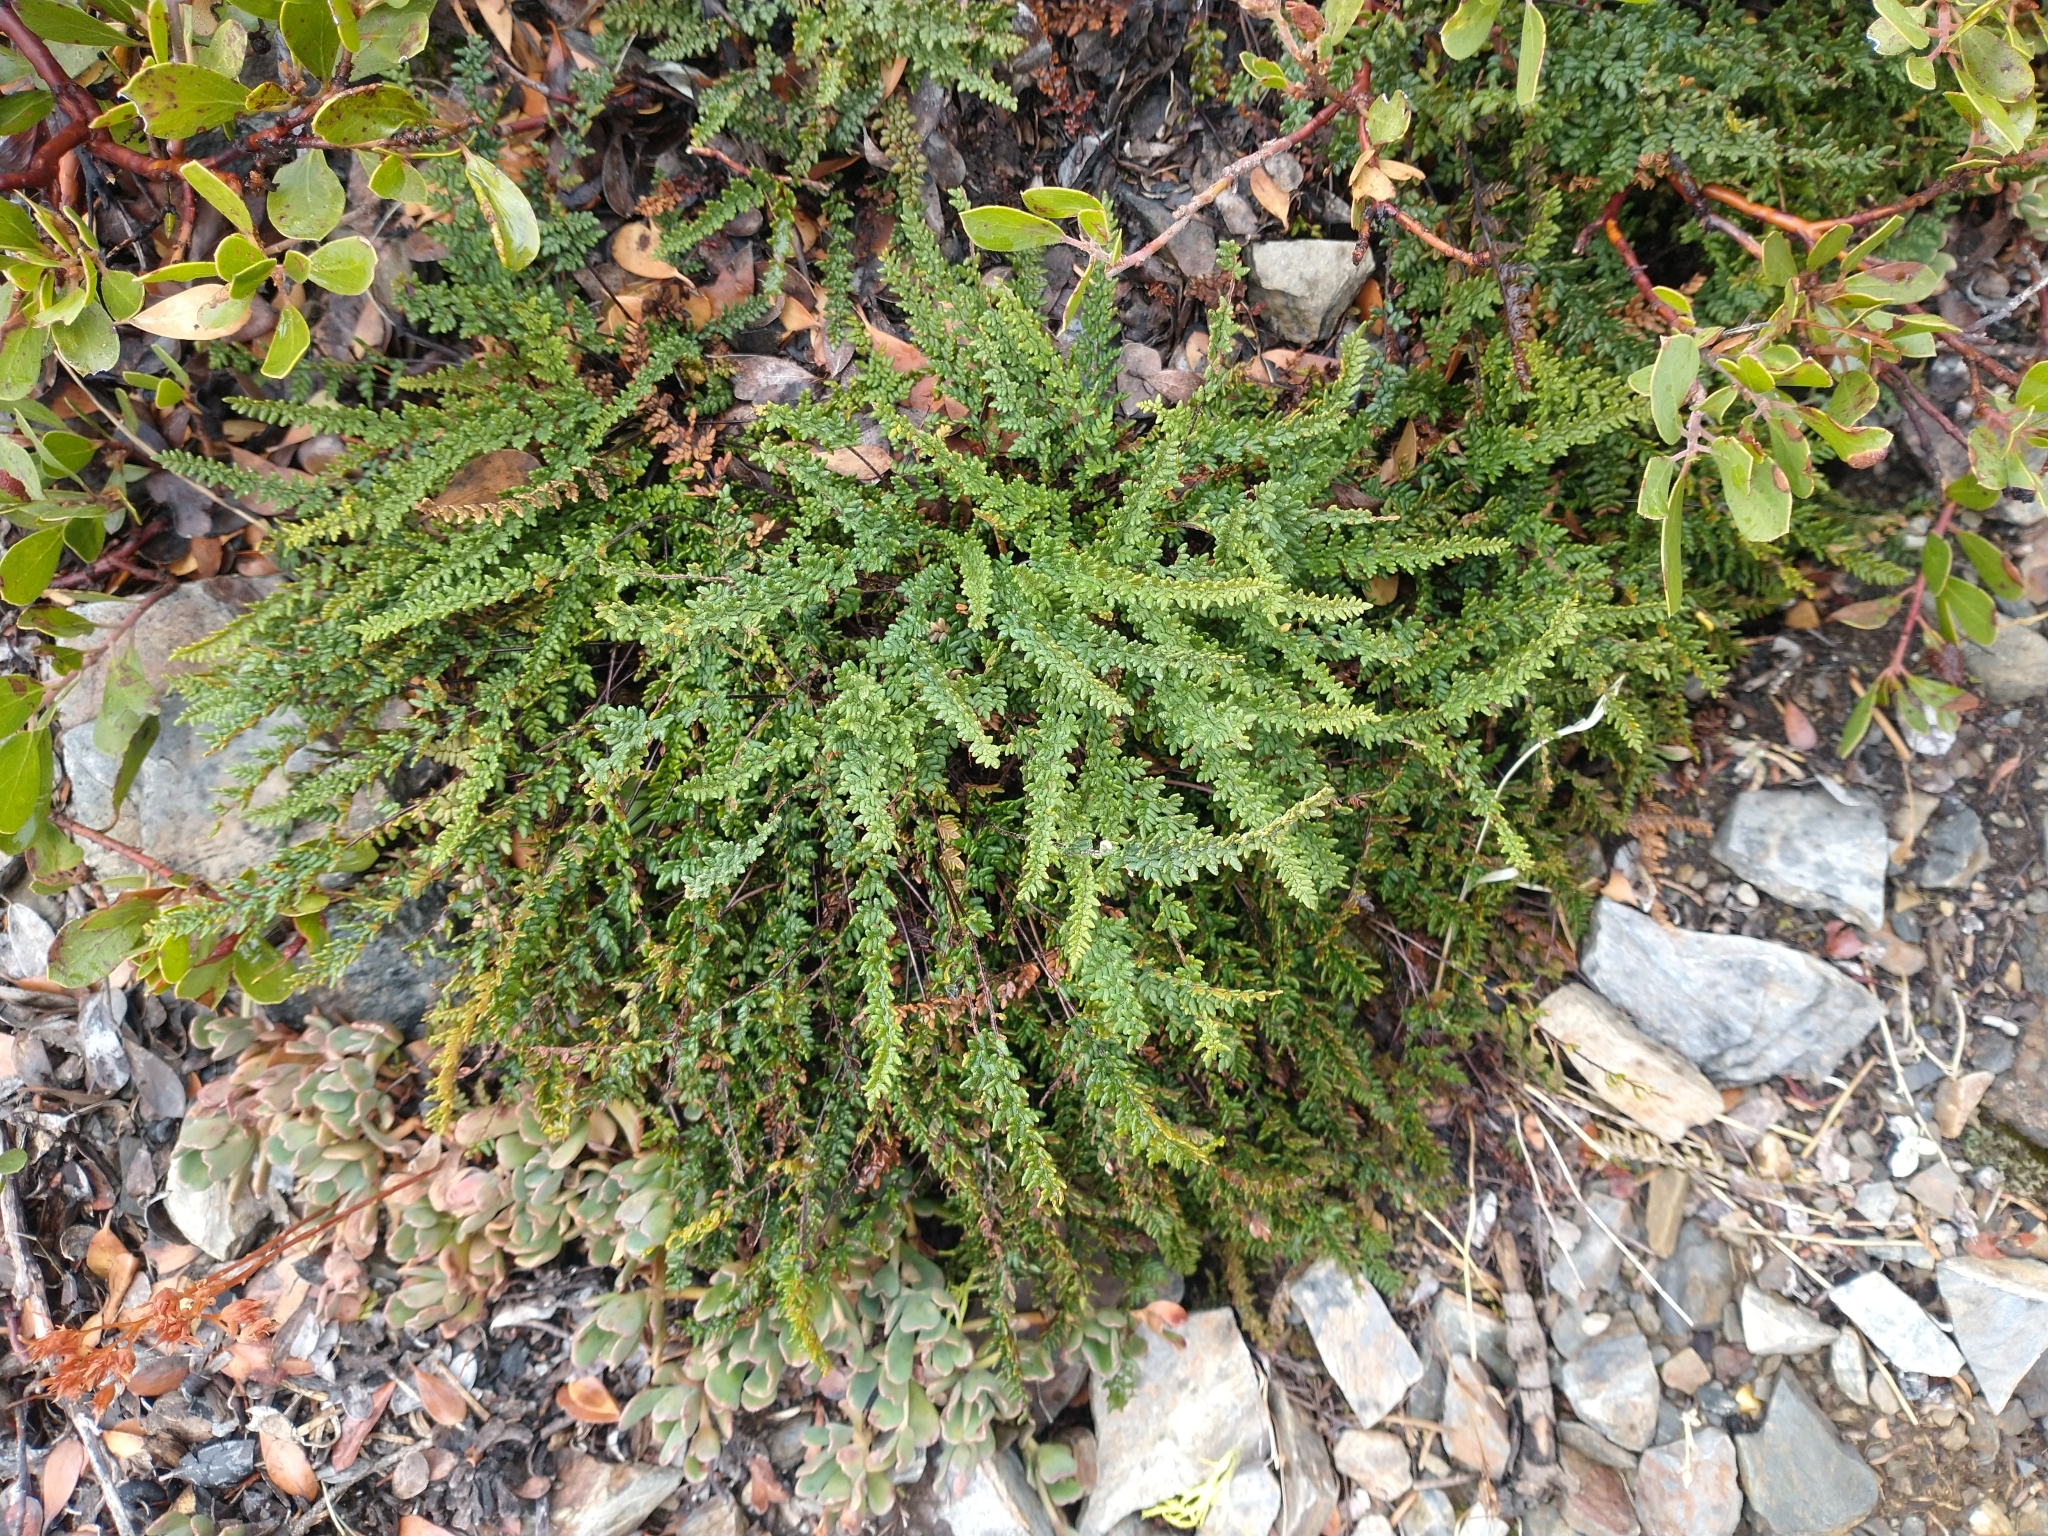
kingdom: Plantae
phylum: Tracheophyta
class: Polypodiopsida
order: Polypodiales
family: Pteridaceae
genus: Myriopteris
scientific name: Myriopteris gracillima
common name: Lace fern
